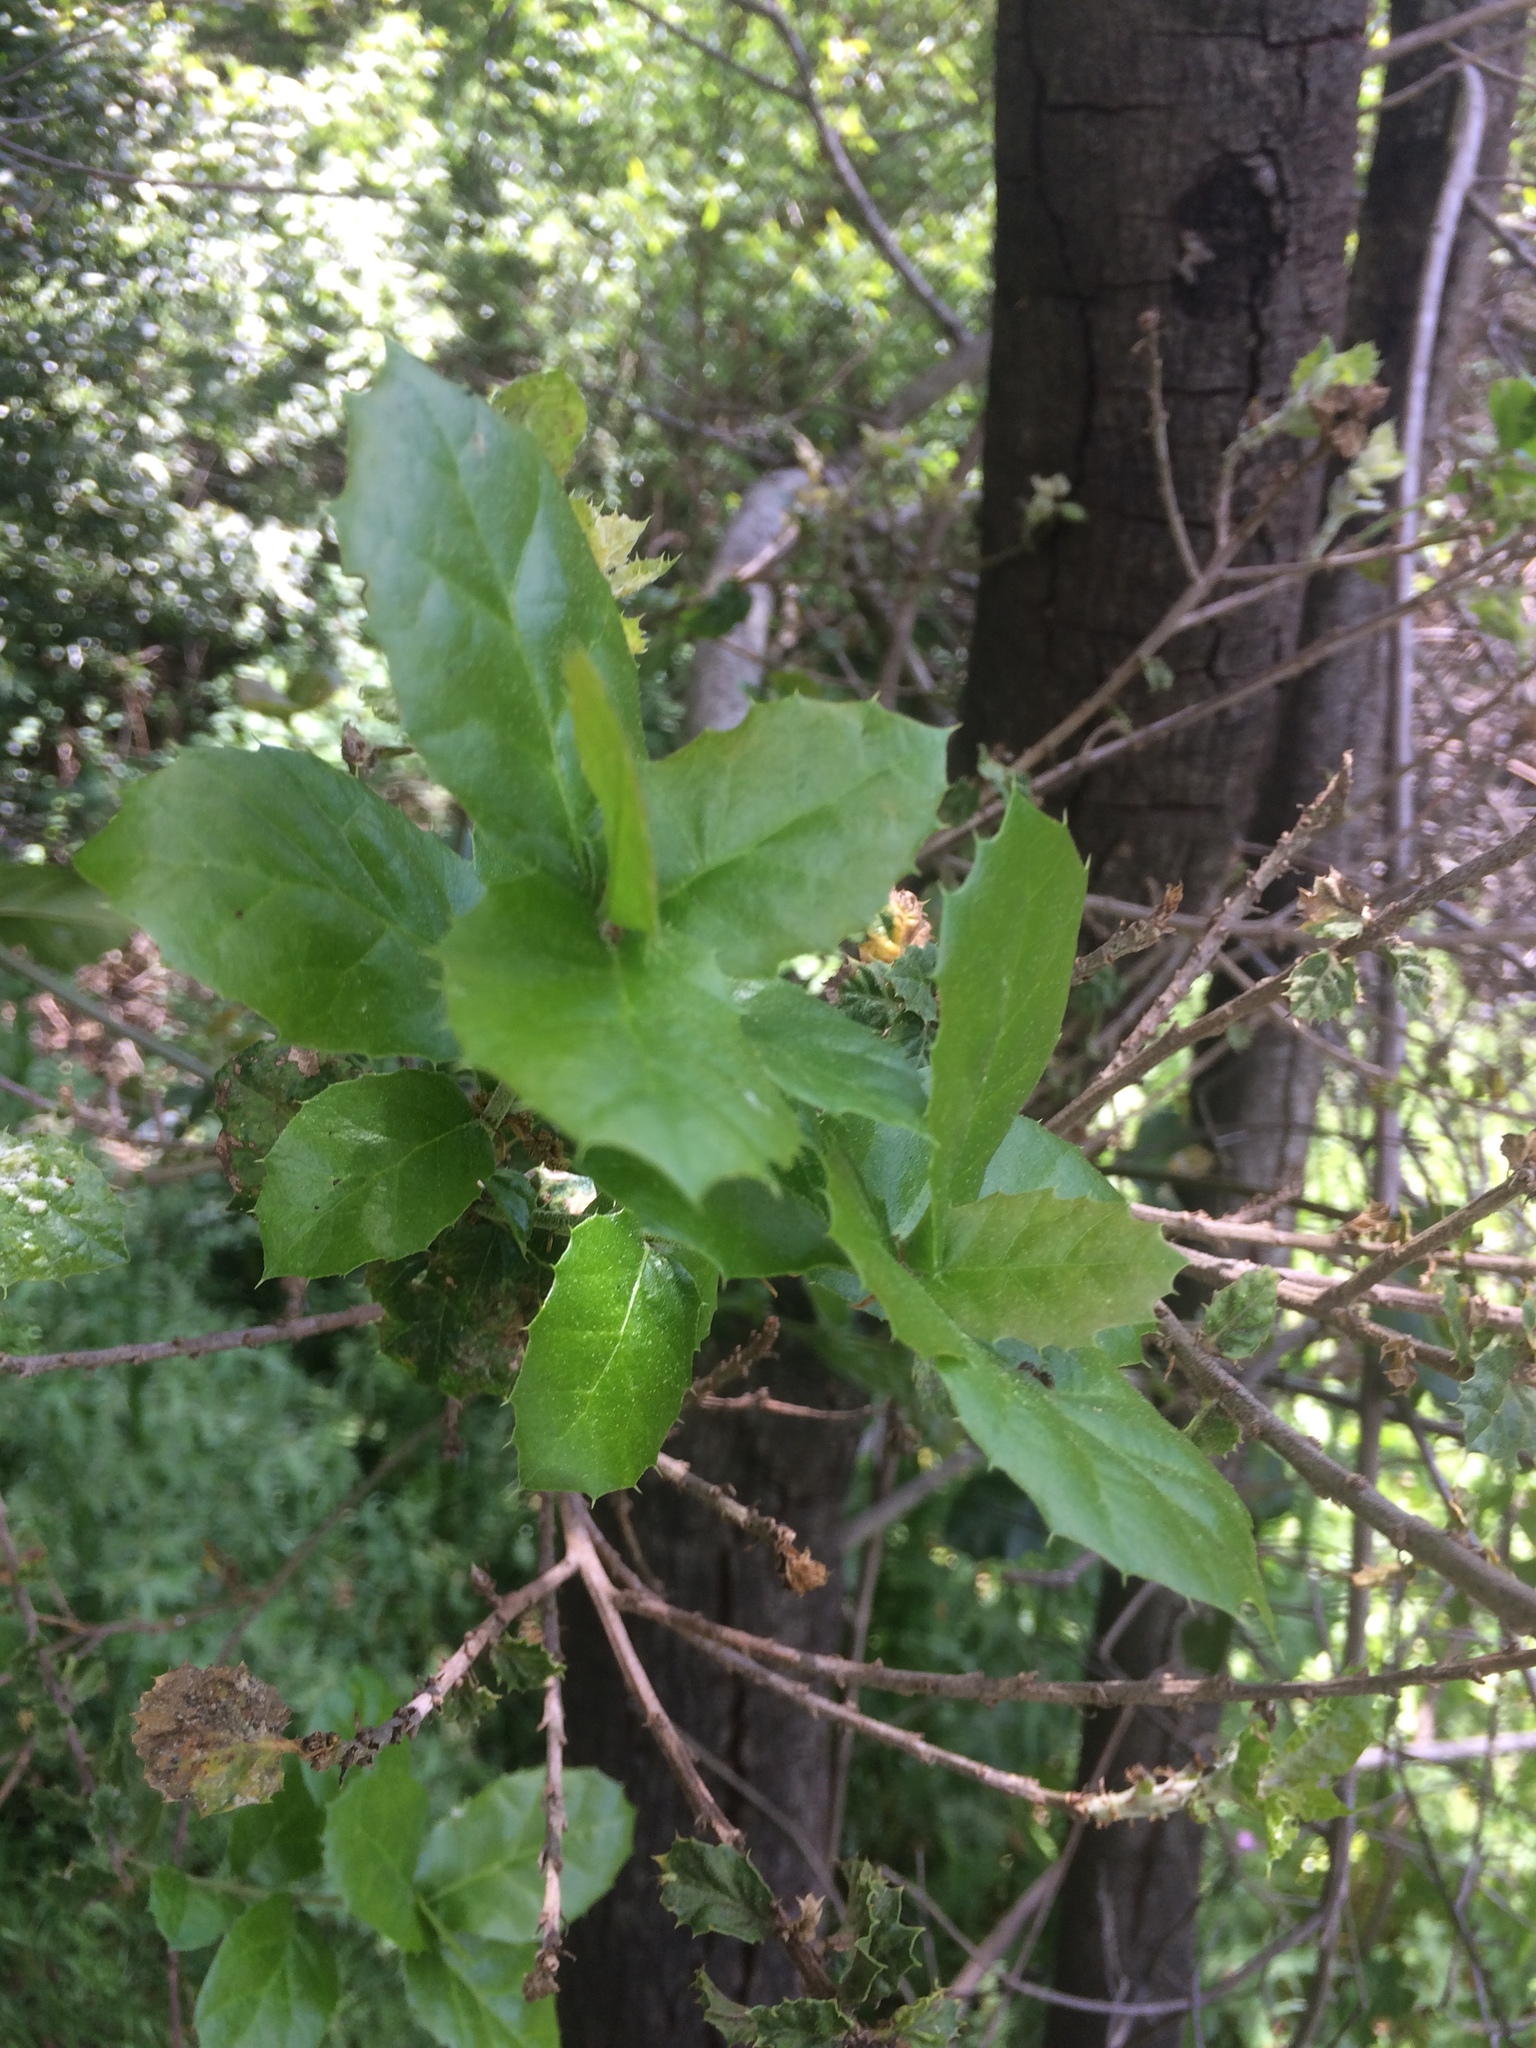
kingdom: Plantae
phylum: Tracheophyta
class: Magnoliopsida
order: Fagales
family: Fagaceae
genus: Quercus
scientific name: Quercus agrifolia
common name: California live oak
